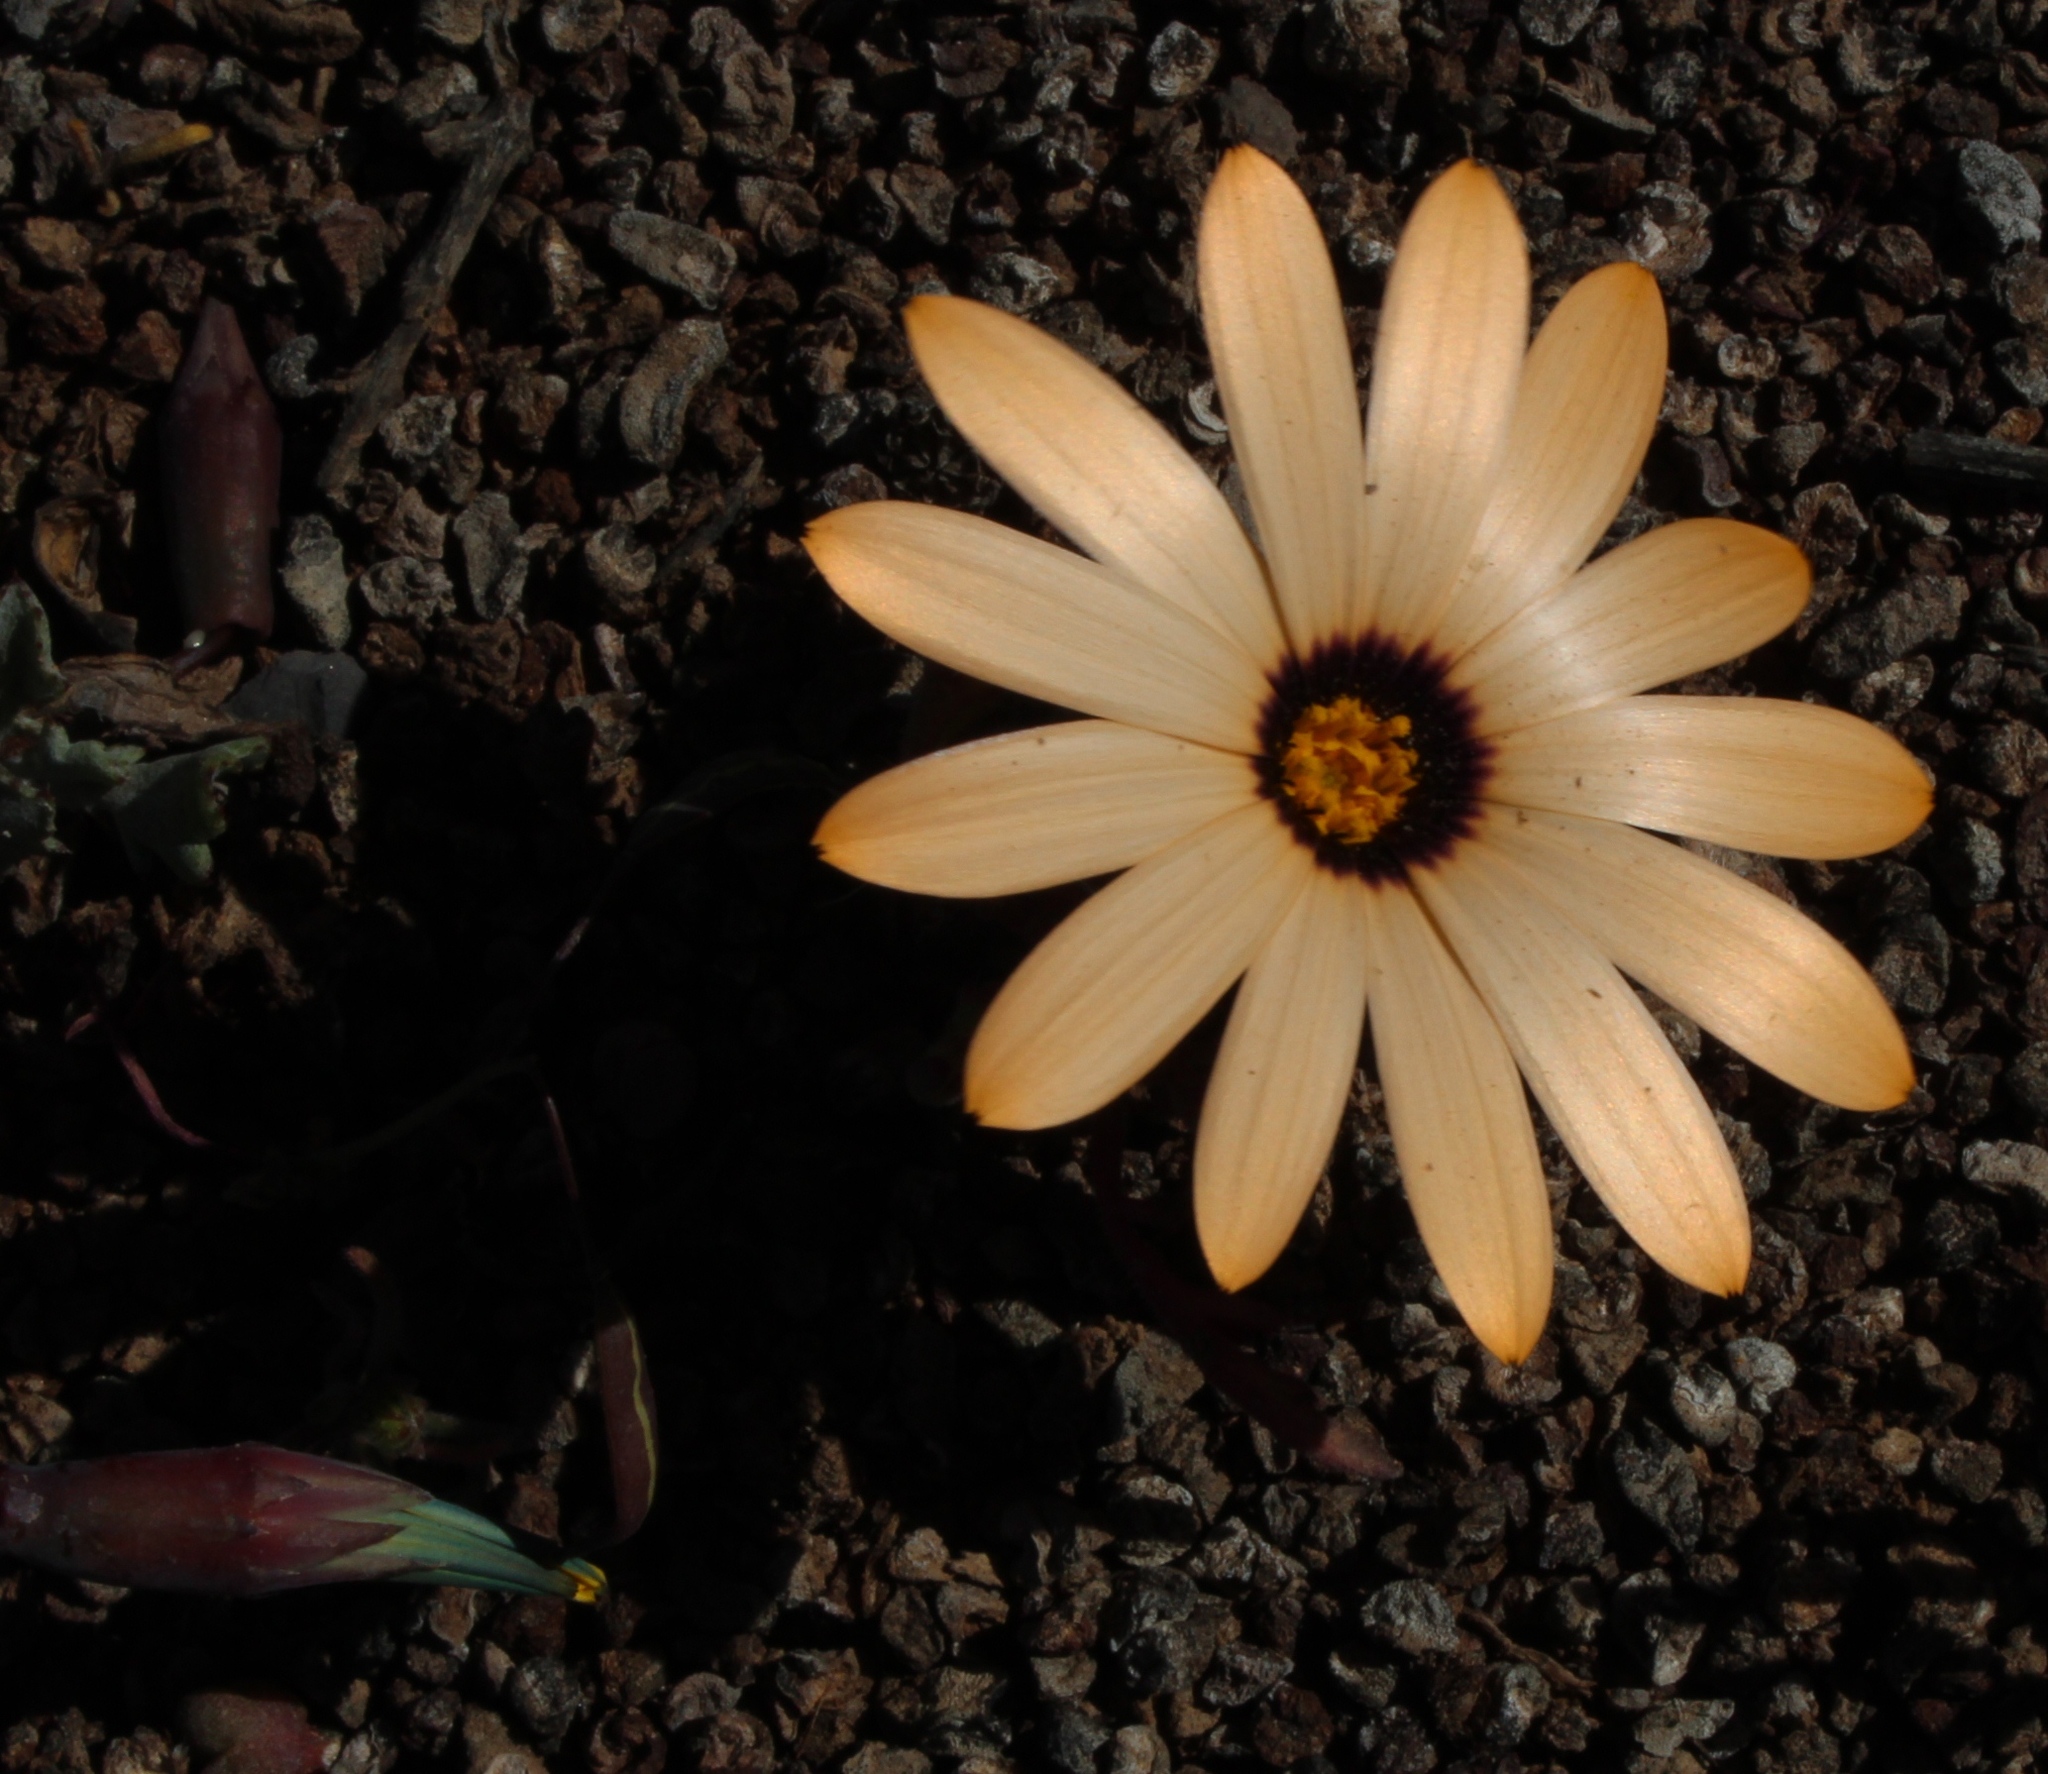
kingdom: Plantae
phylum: Tracheophyta
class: Magnoliopsida
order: Asterales
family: Asteraceae
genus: Dimorphotheca
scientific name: Dimorphotheca pinnata
